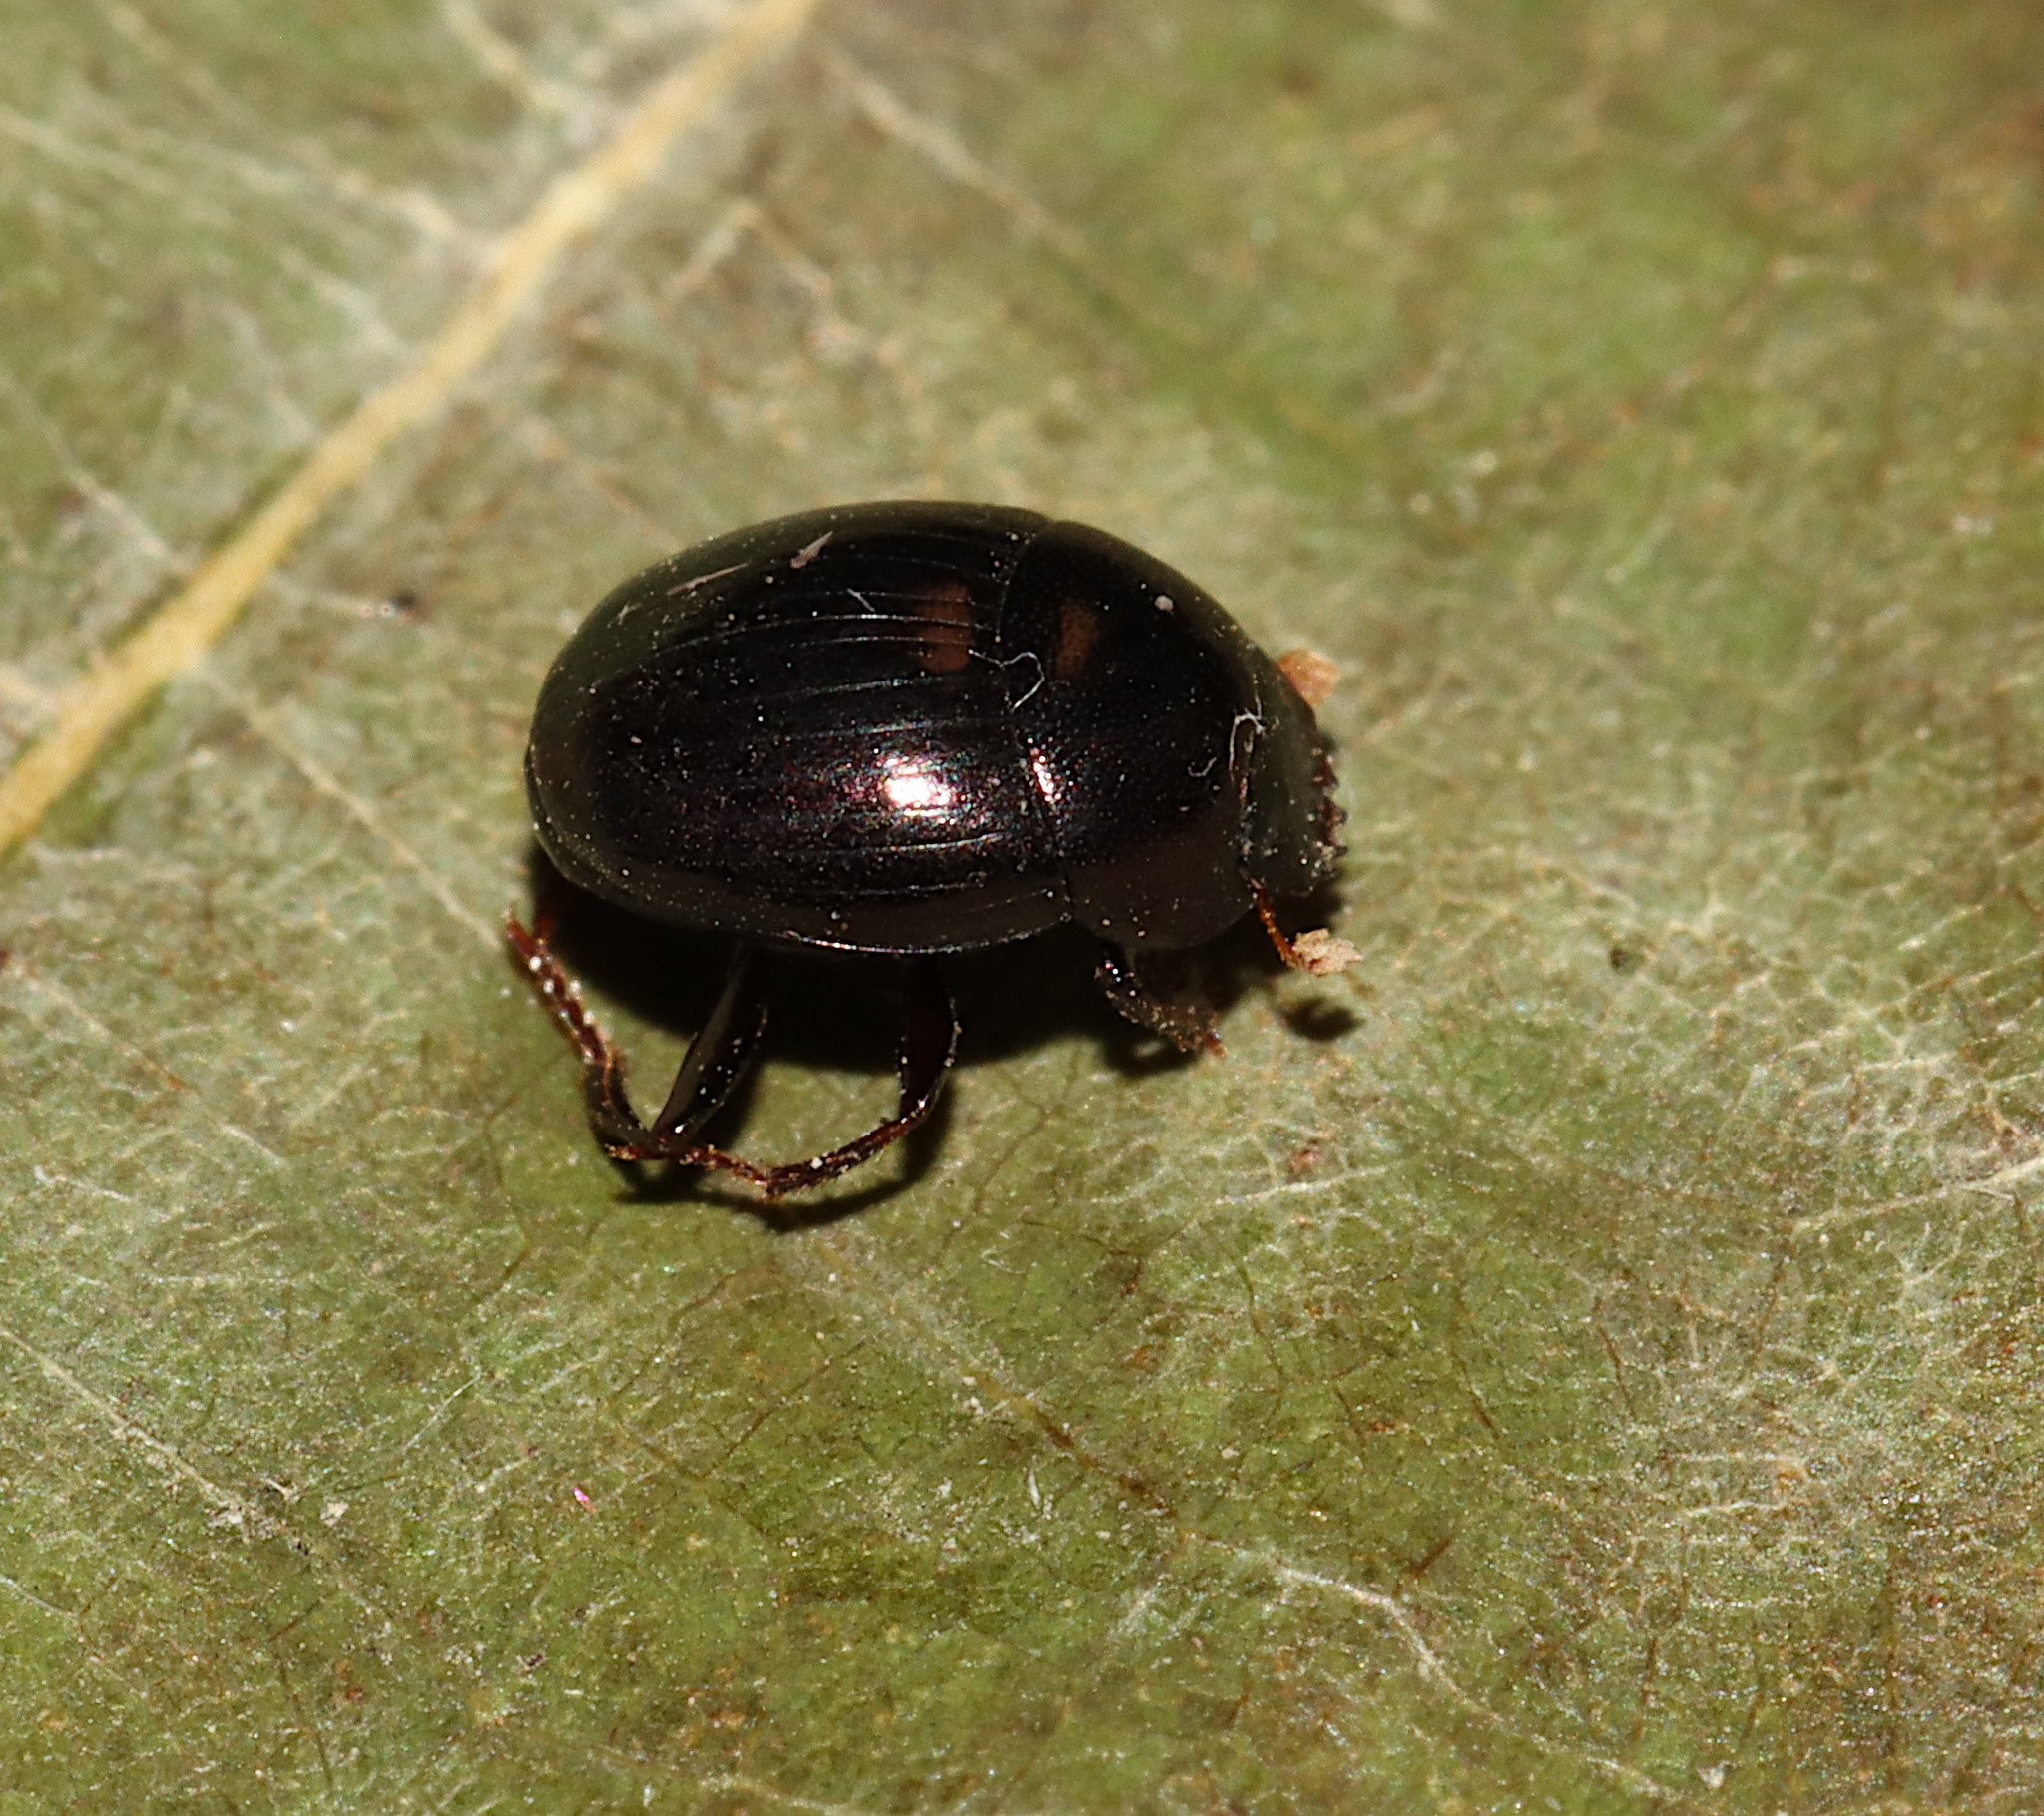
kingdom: Animalia
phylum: Arthropoda
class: Insecta
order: Coleoptera
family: Scarabaeidae
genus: Pseudocanthon
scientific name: Pseudocanthon perplexus
